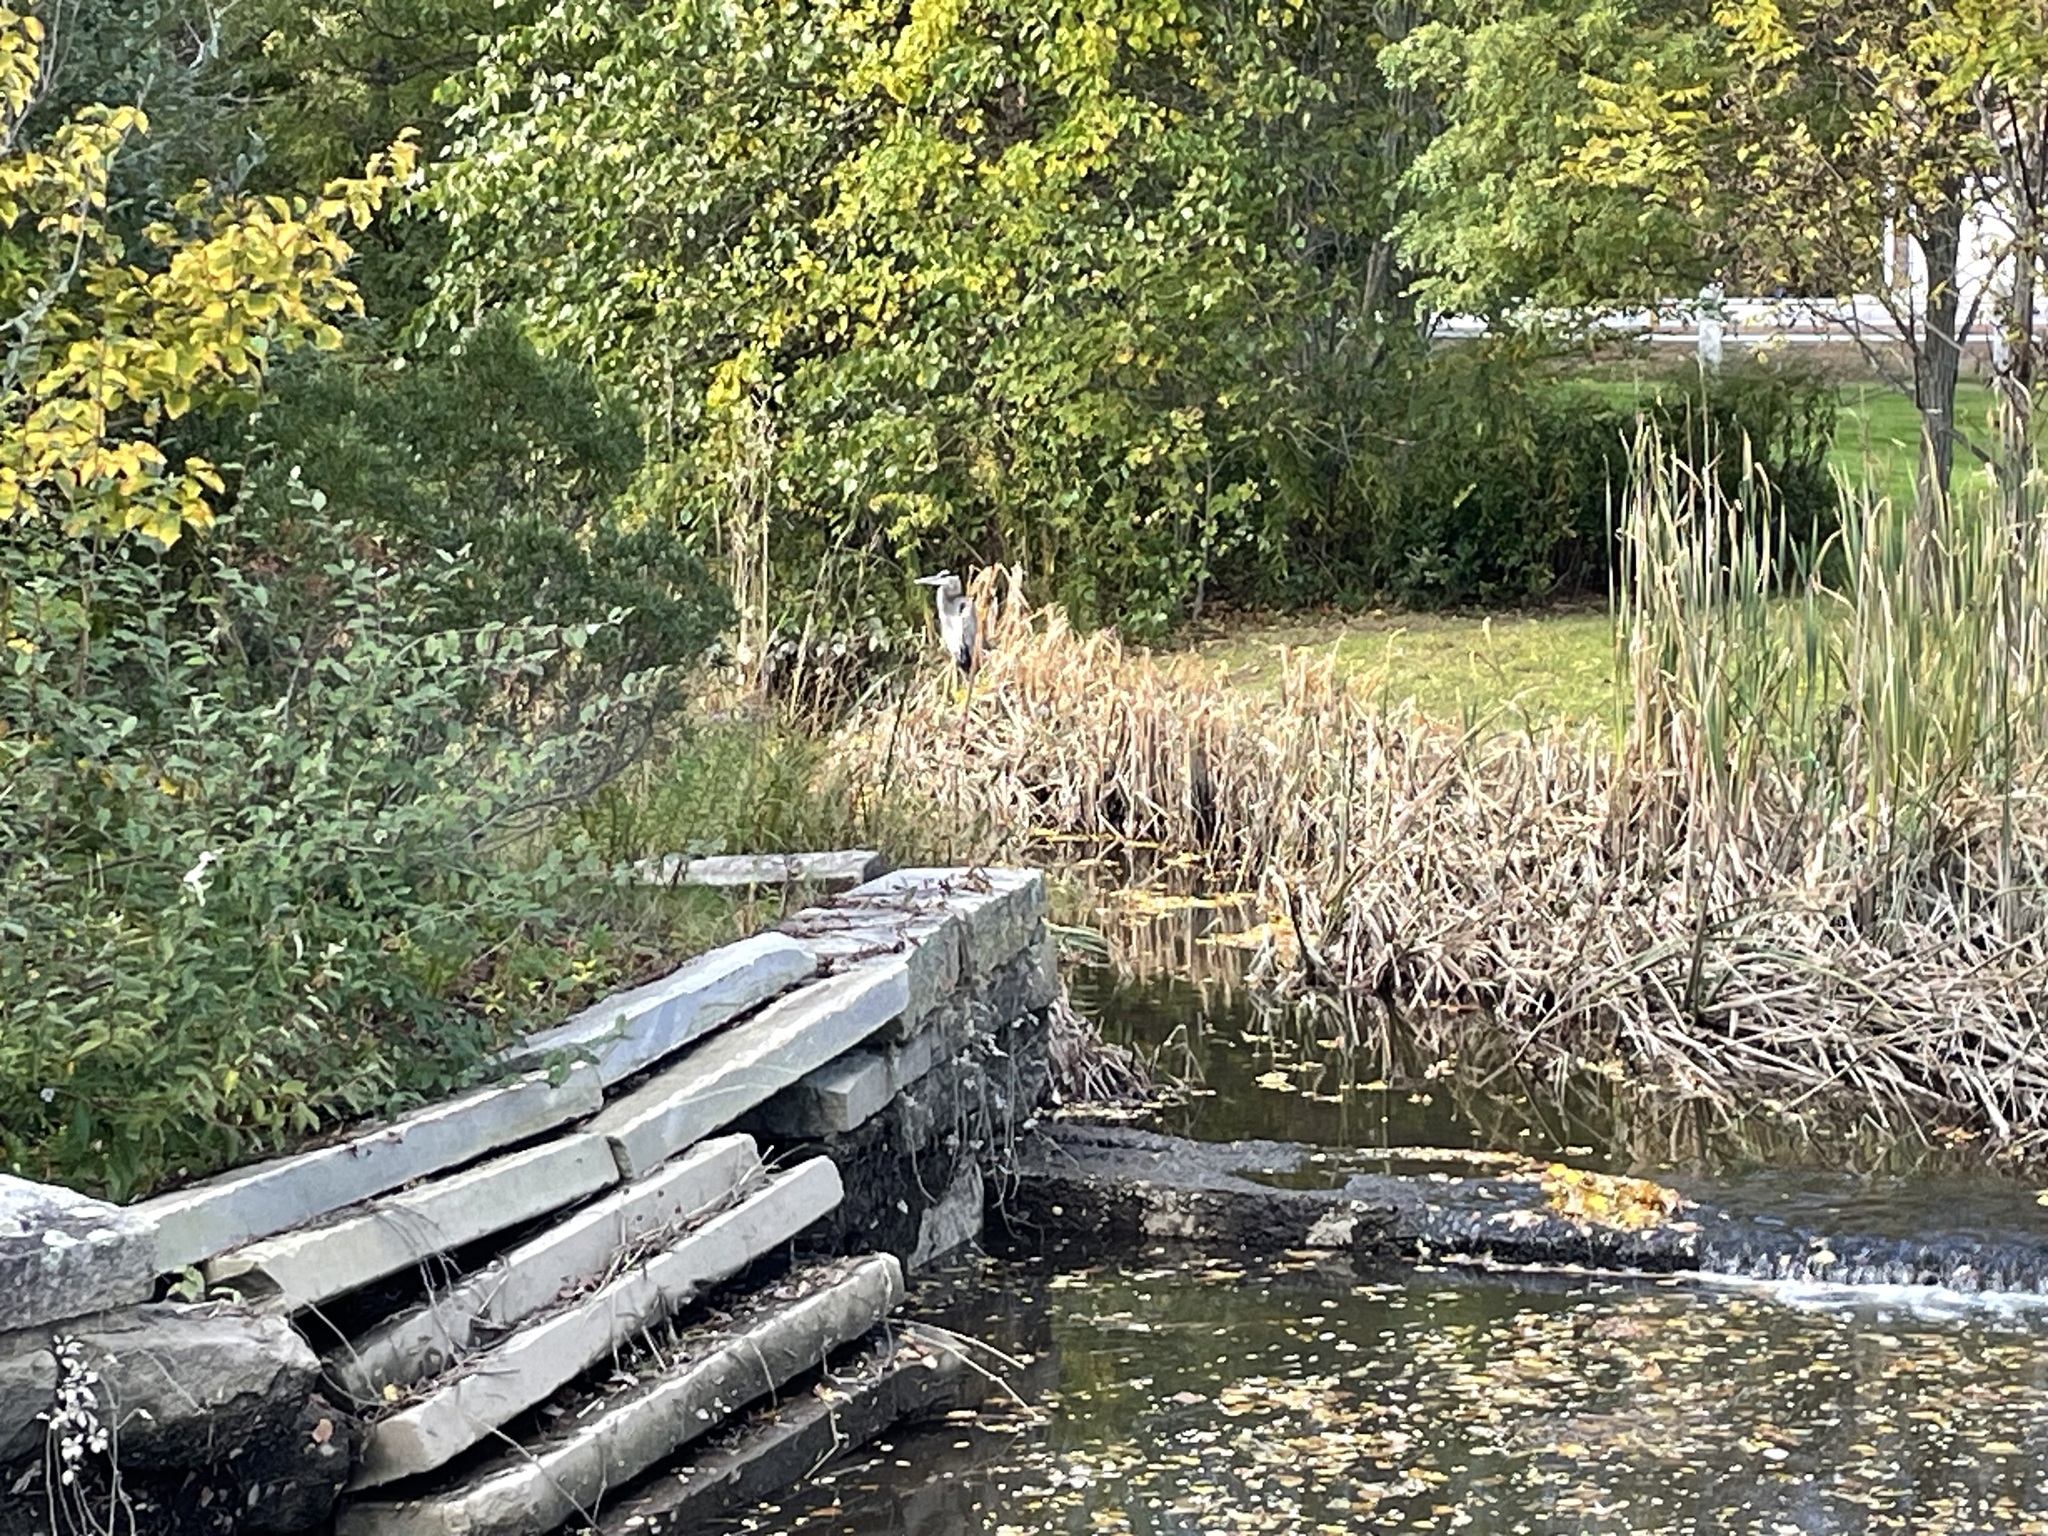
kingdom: Animalia
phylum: Chordata
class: Aves
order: Pelecaniformes
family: Ardeidae
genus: Ardea
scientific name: Ardea herodias
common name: Great blue heron
